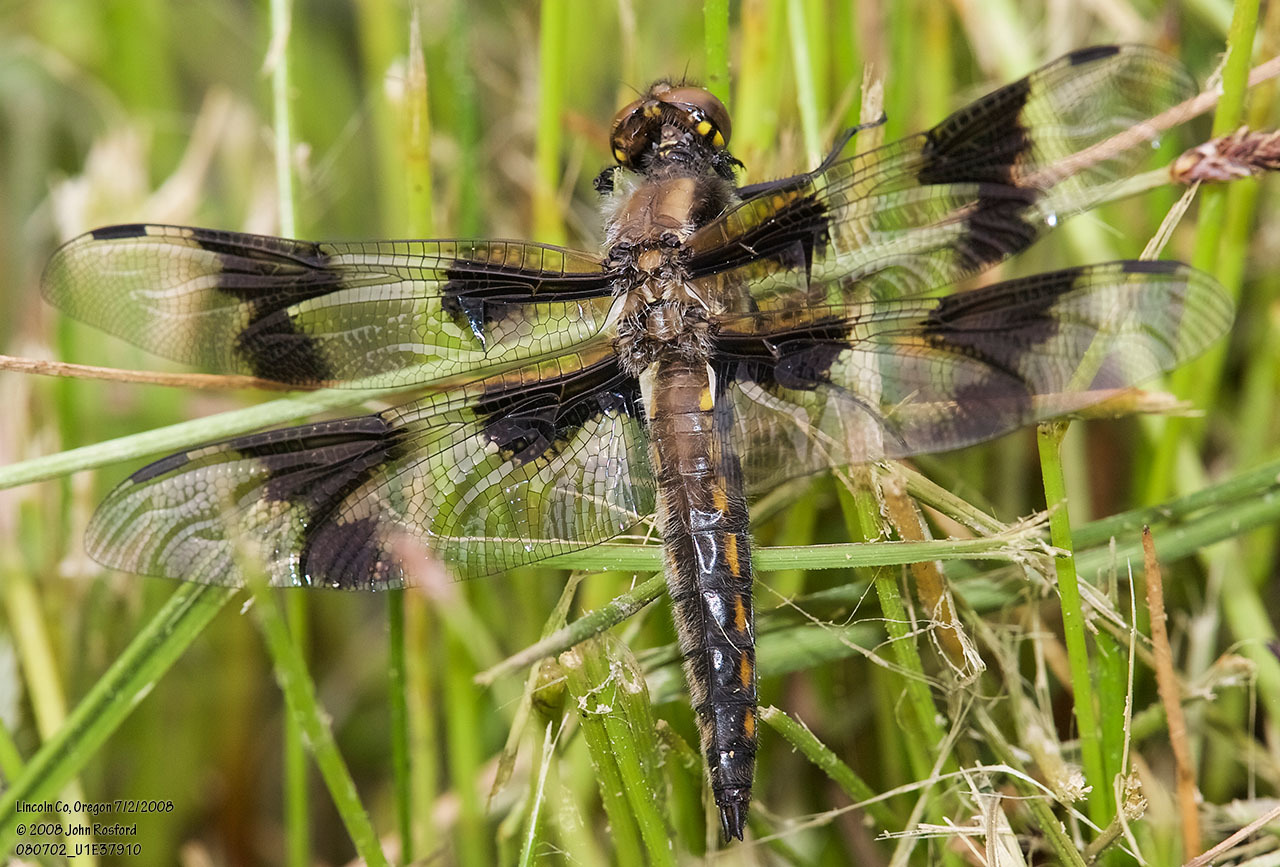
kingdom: Animalia
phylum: Arthropoda
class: Insecta
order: Odonata
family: Libellulidae
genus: Libellula
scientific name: Libellula forensis
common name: Eight-spotted skimmer
